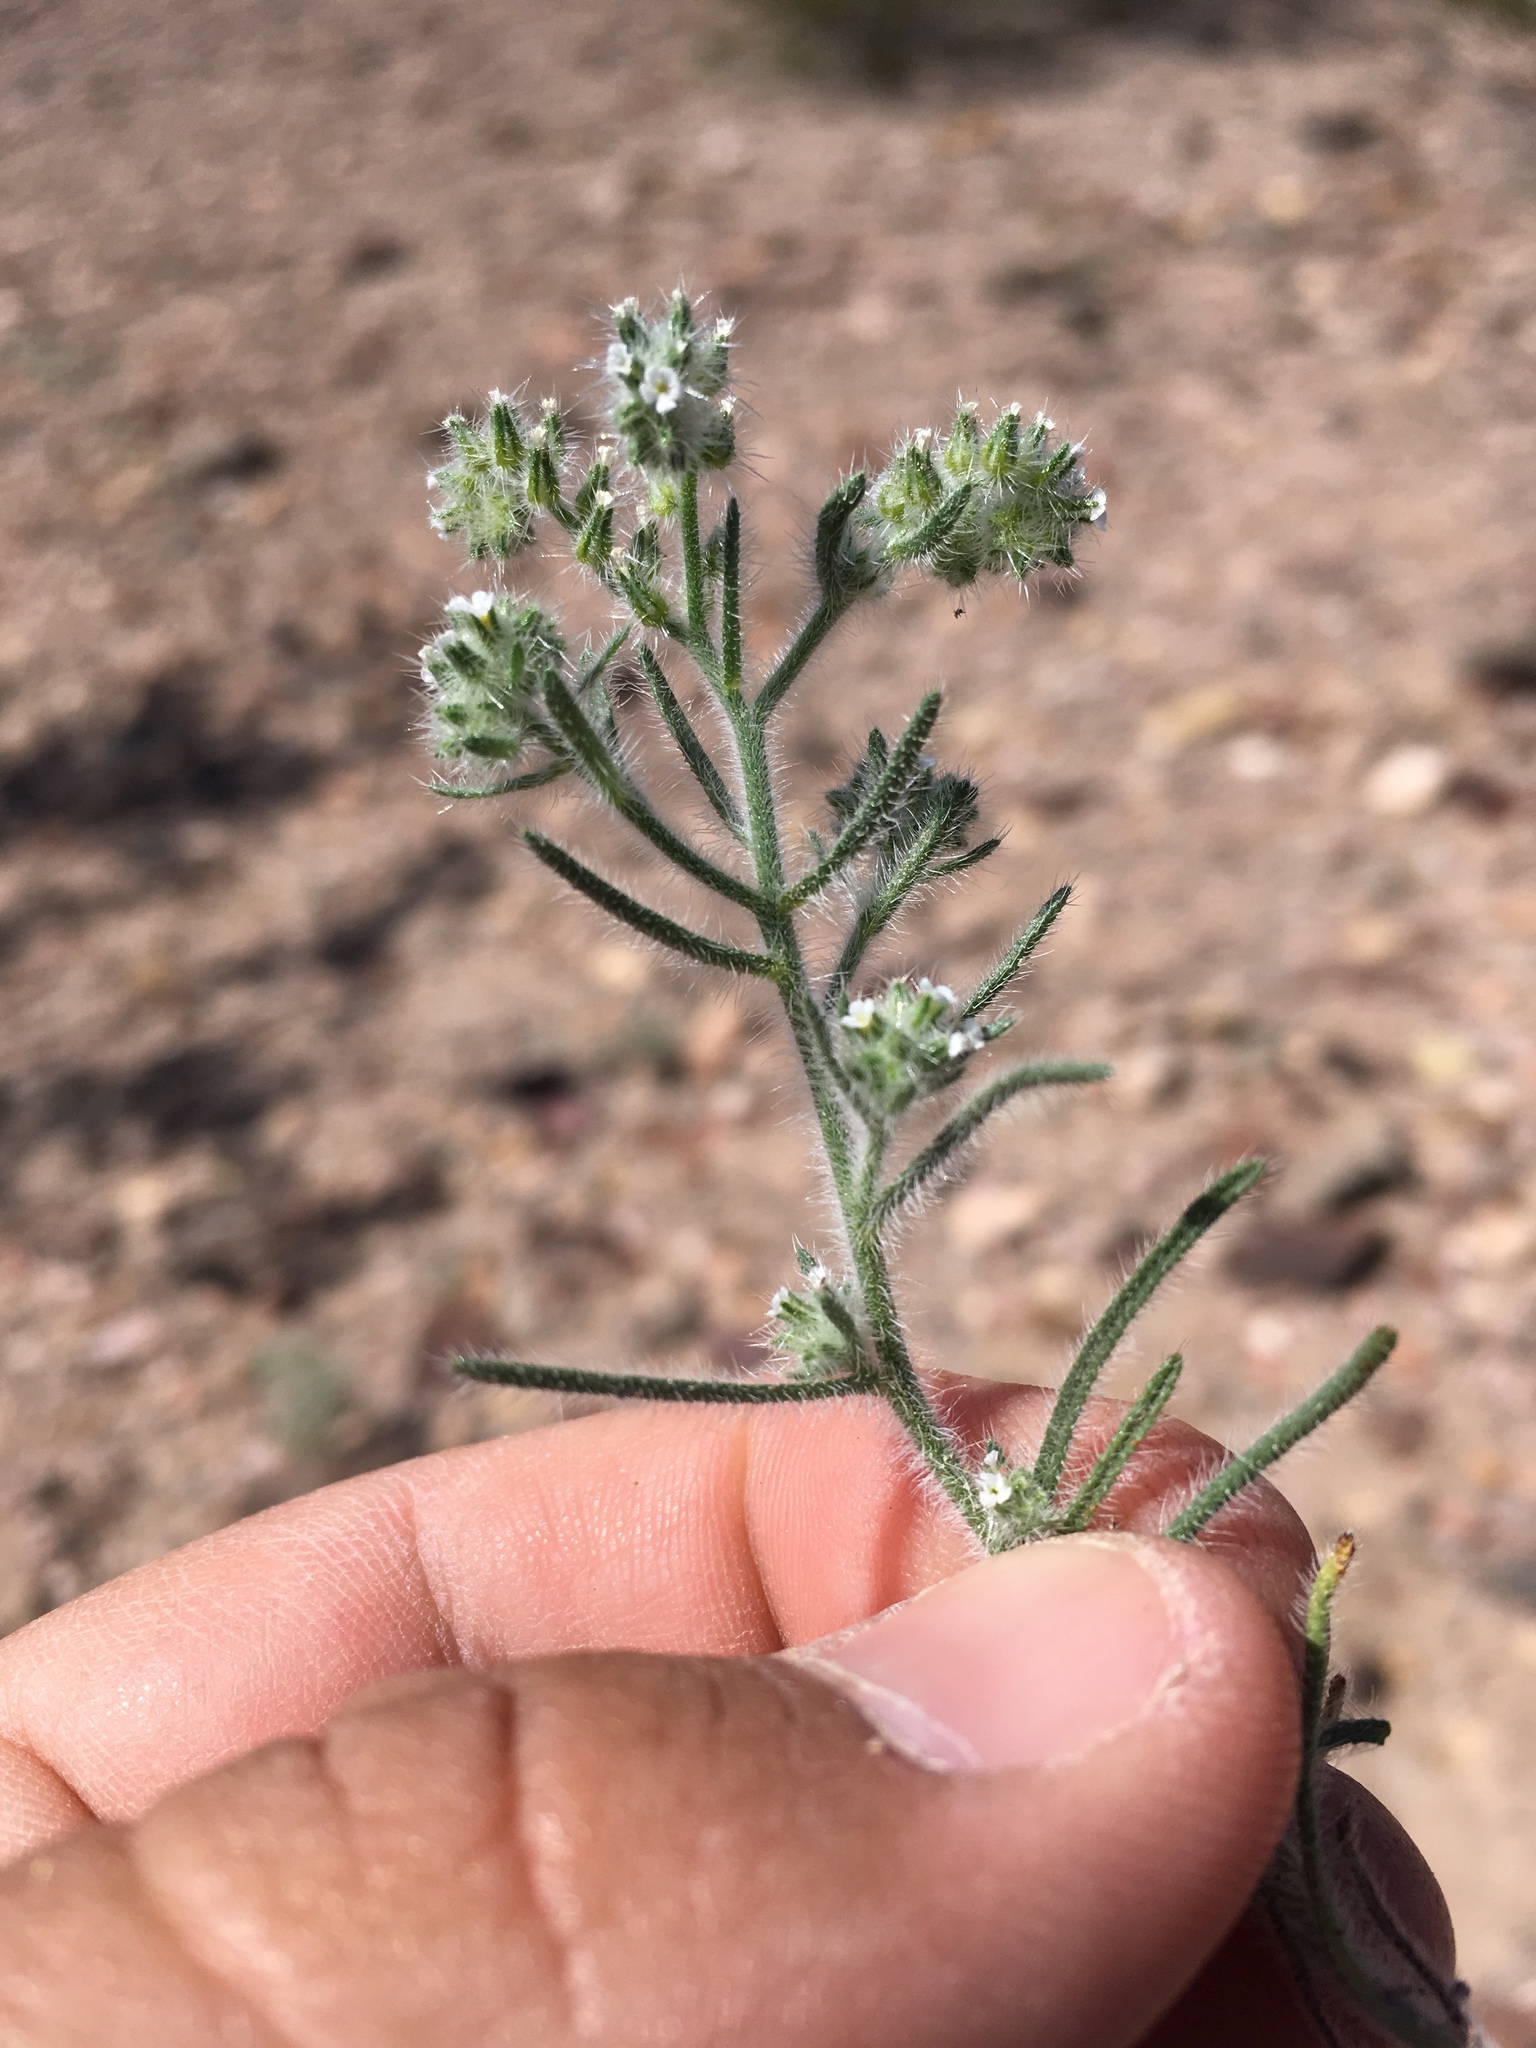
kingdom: Plantae
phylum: Tracheophyta
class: Magnoliopsida
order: Boraginales
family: Boraginaceae
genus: Johnstonella
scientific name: Johnstonella angustifolia
